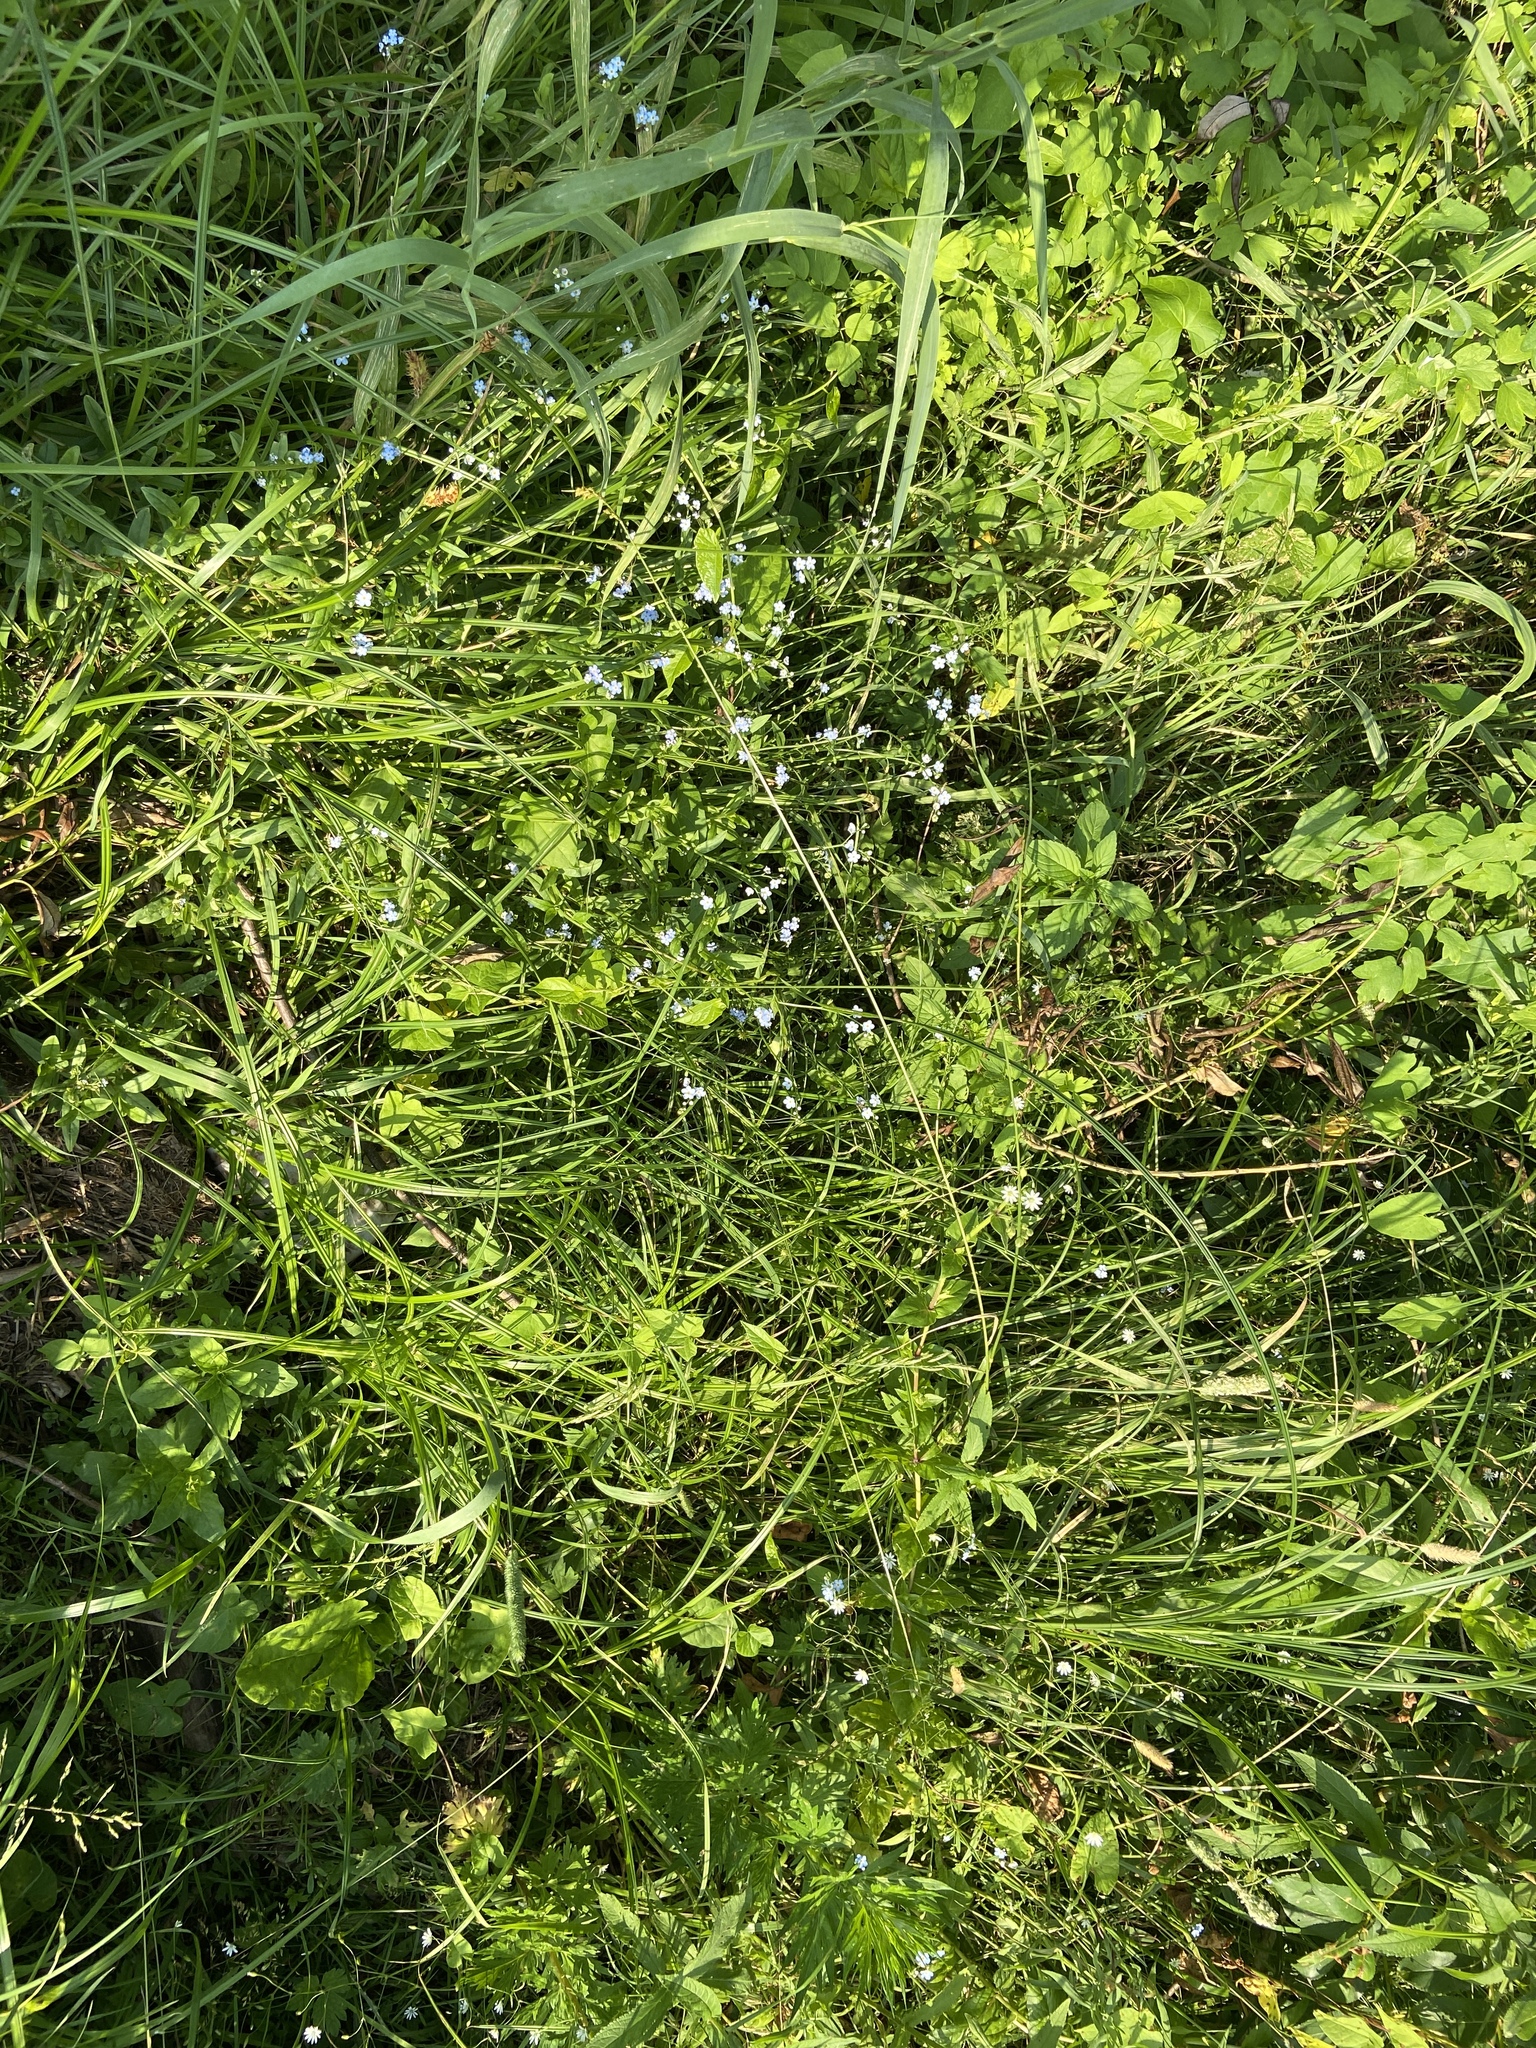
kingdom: Plantae
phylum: Tracheophyta
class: Magnoliopsida
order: Boraginales
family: Boraginaceae
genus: Myosotis
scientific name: Myosotis laxa
